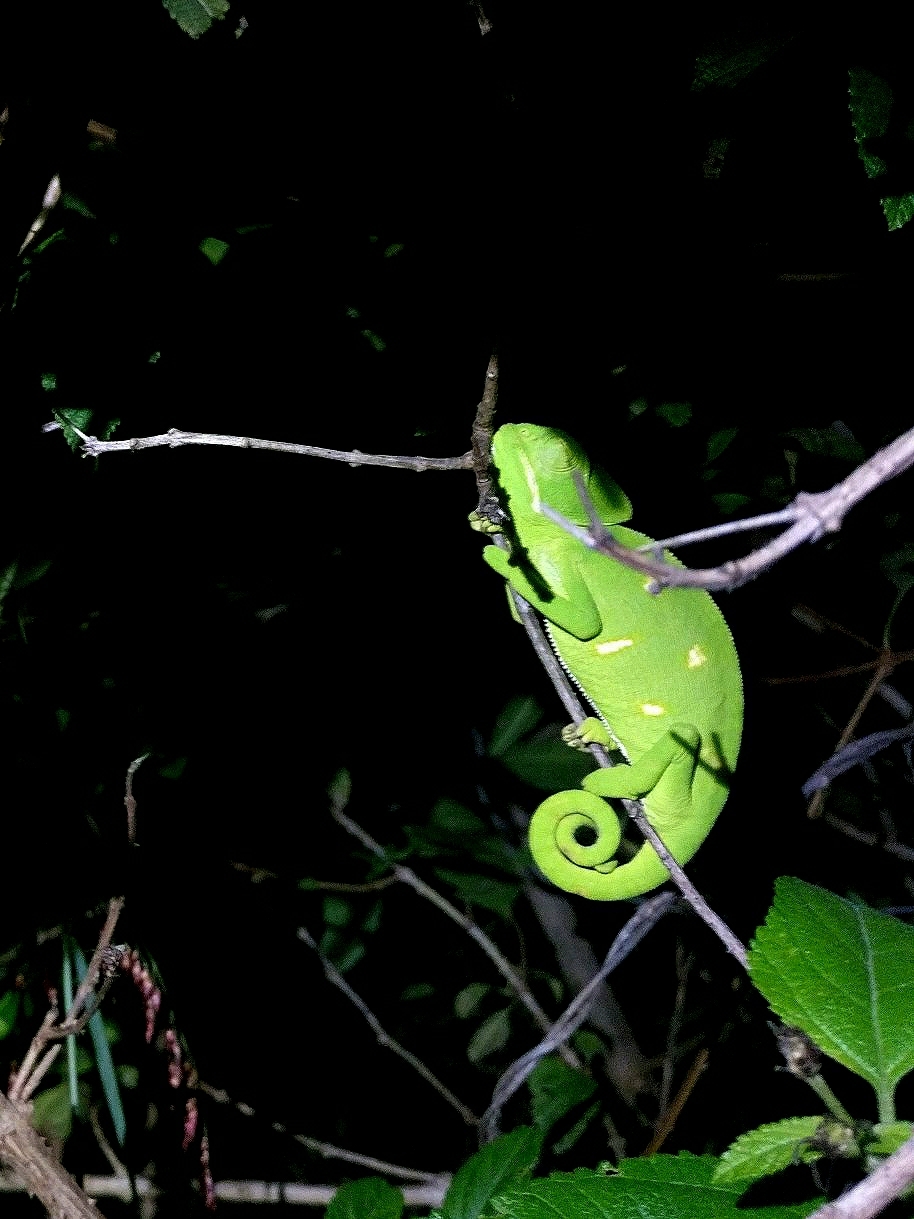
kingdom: Animalia
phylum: Chordata
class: Squamata
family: Chamaeleonidae
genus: Chamaeleo
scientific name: Chamaeleo zeylanicus
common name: Indian chameleon
